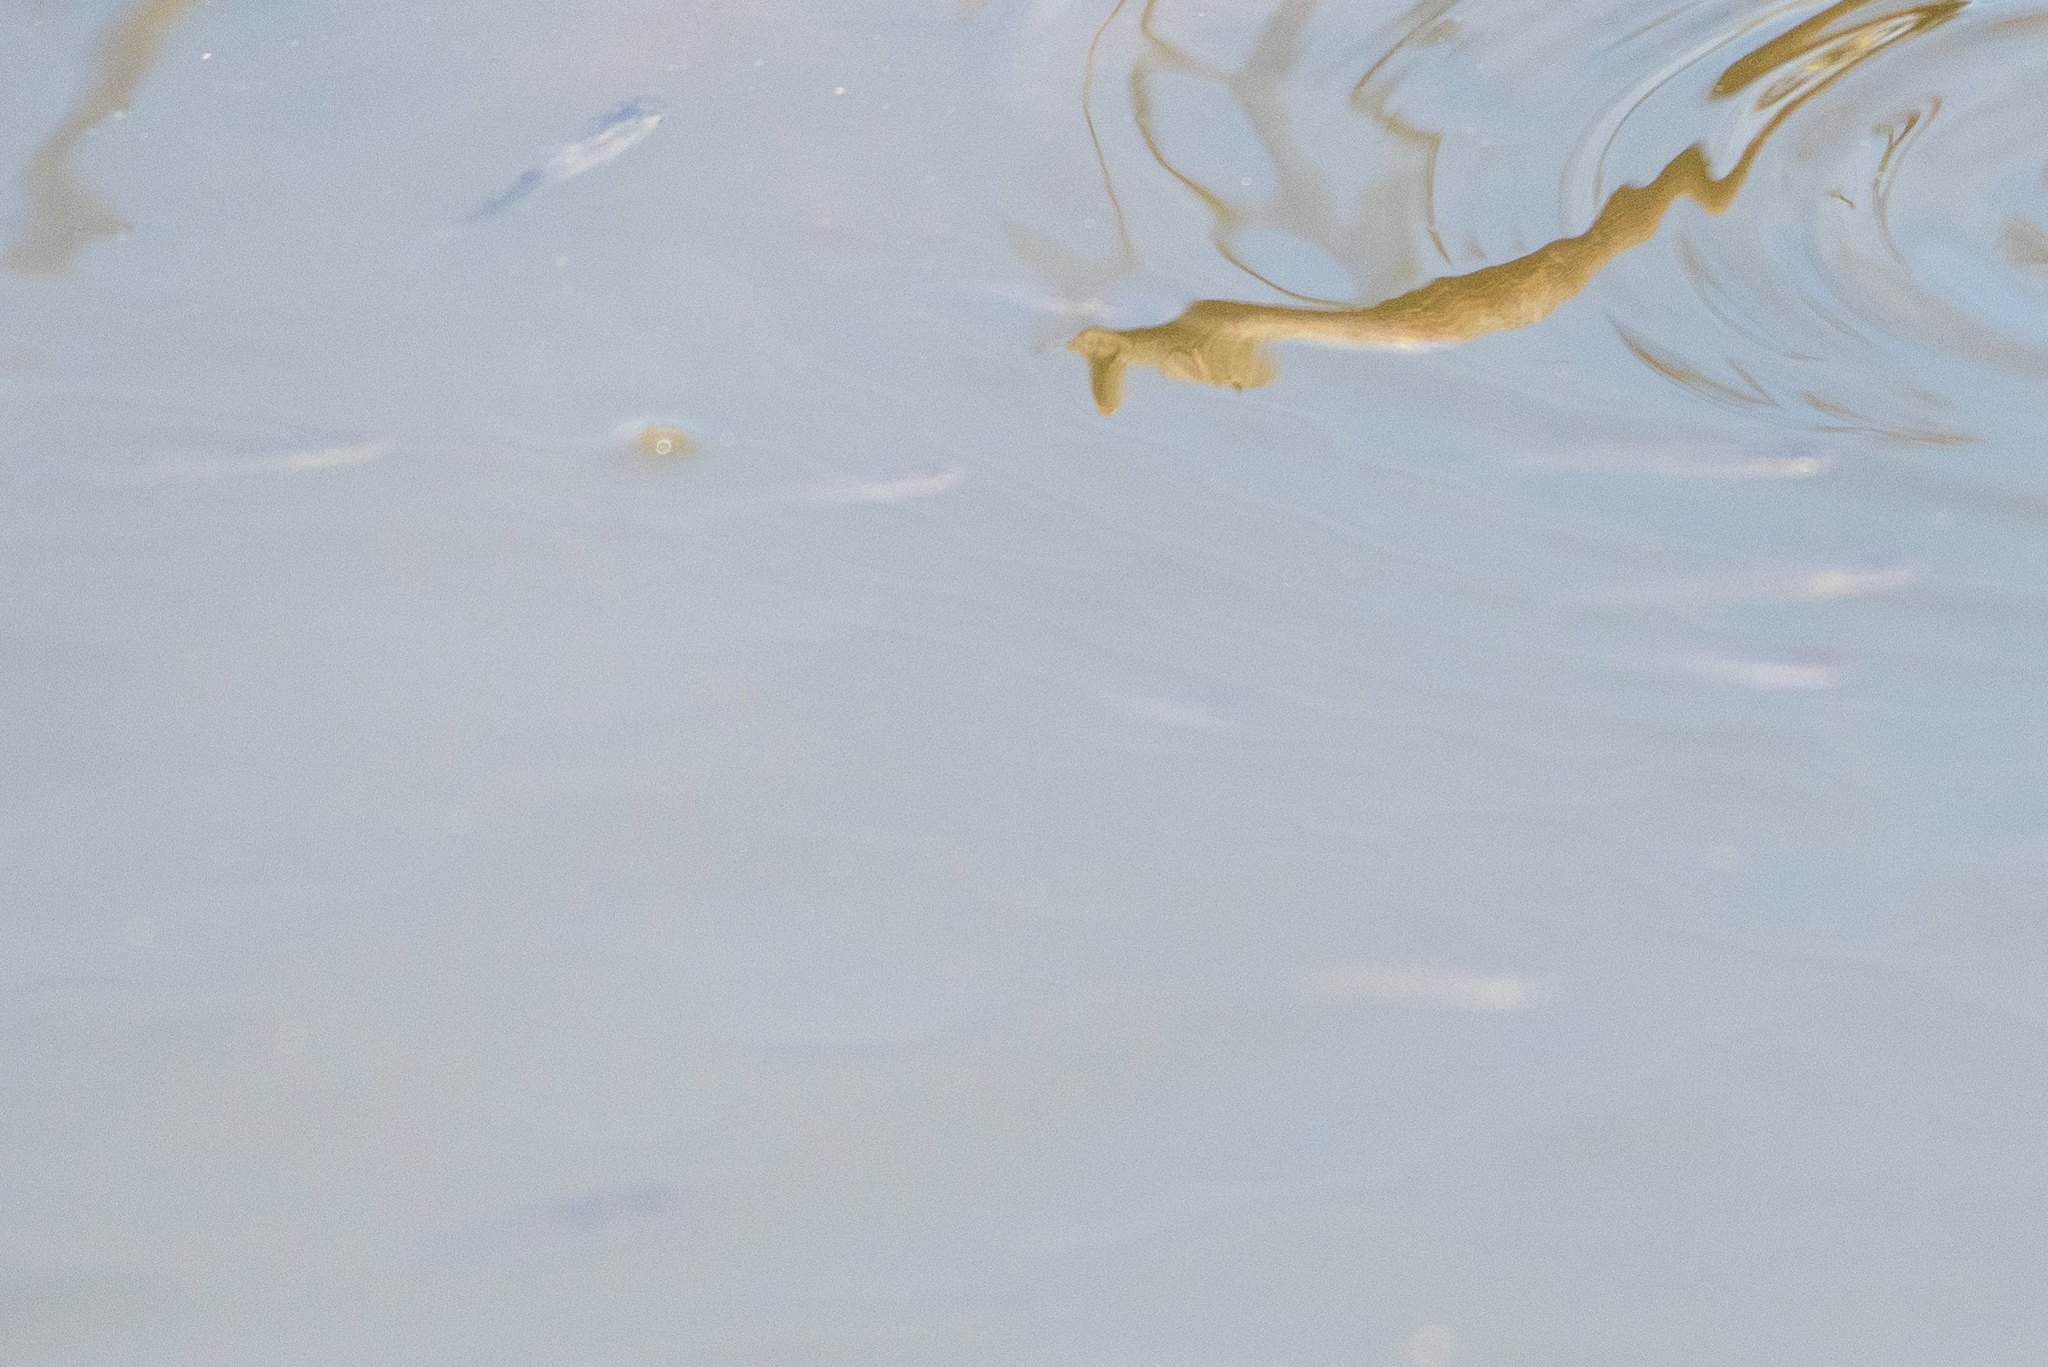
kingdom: Animalia
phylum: Chordata
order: Cyprinodontiformes
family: Poeciliidae
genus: Gambusia
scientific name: Gambusia affinis
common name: Mosquitofish
